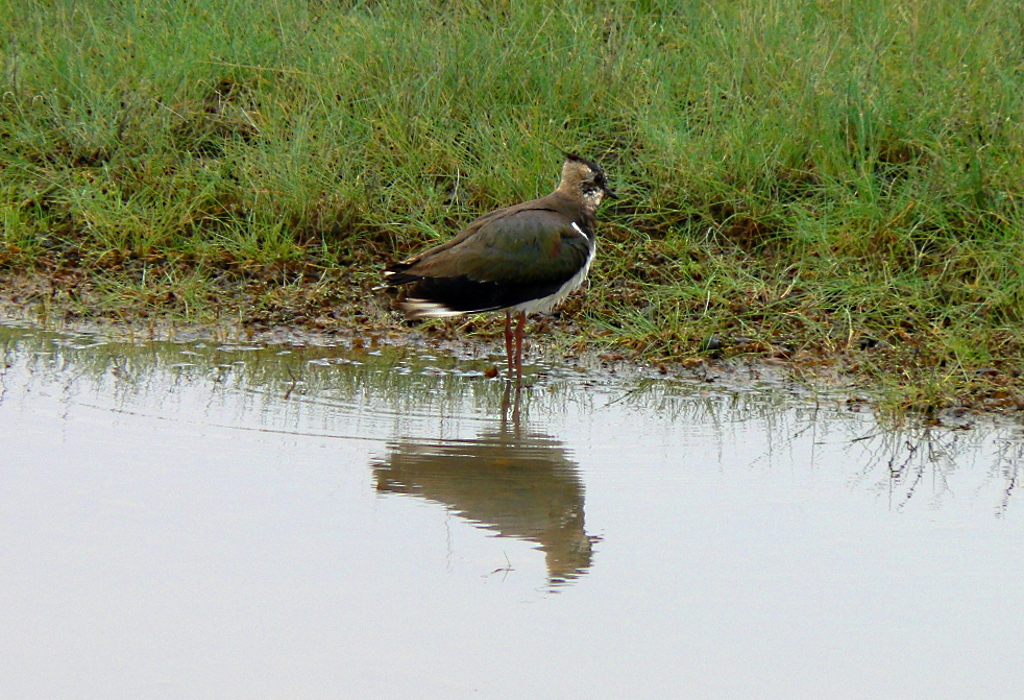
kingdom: Animalia
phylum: Chordata
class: Aves
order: Charadriiformes
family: Charadriidae
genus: Vanellus
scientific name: Vanellus vanellus
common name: Northern lapwing
